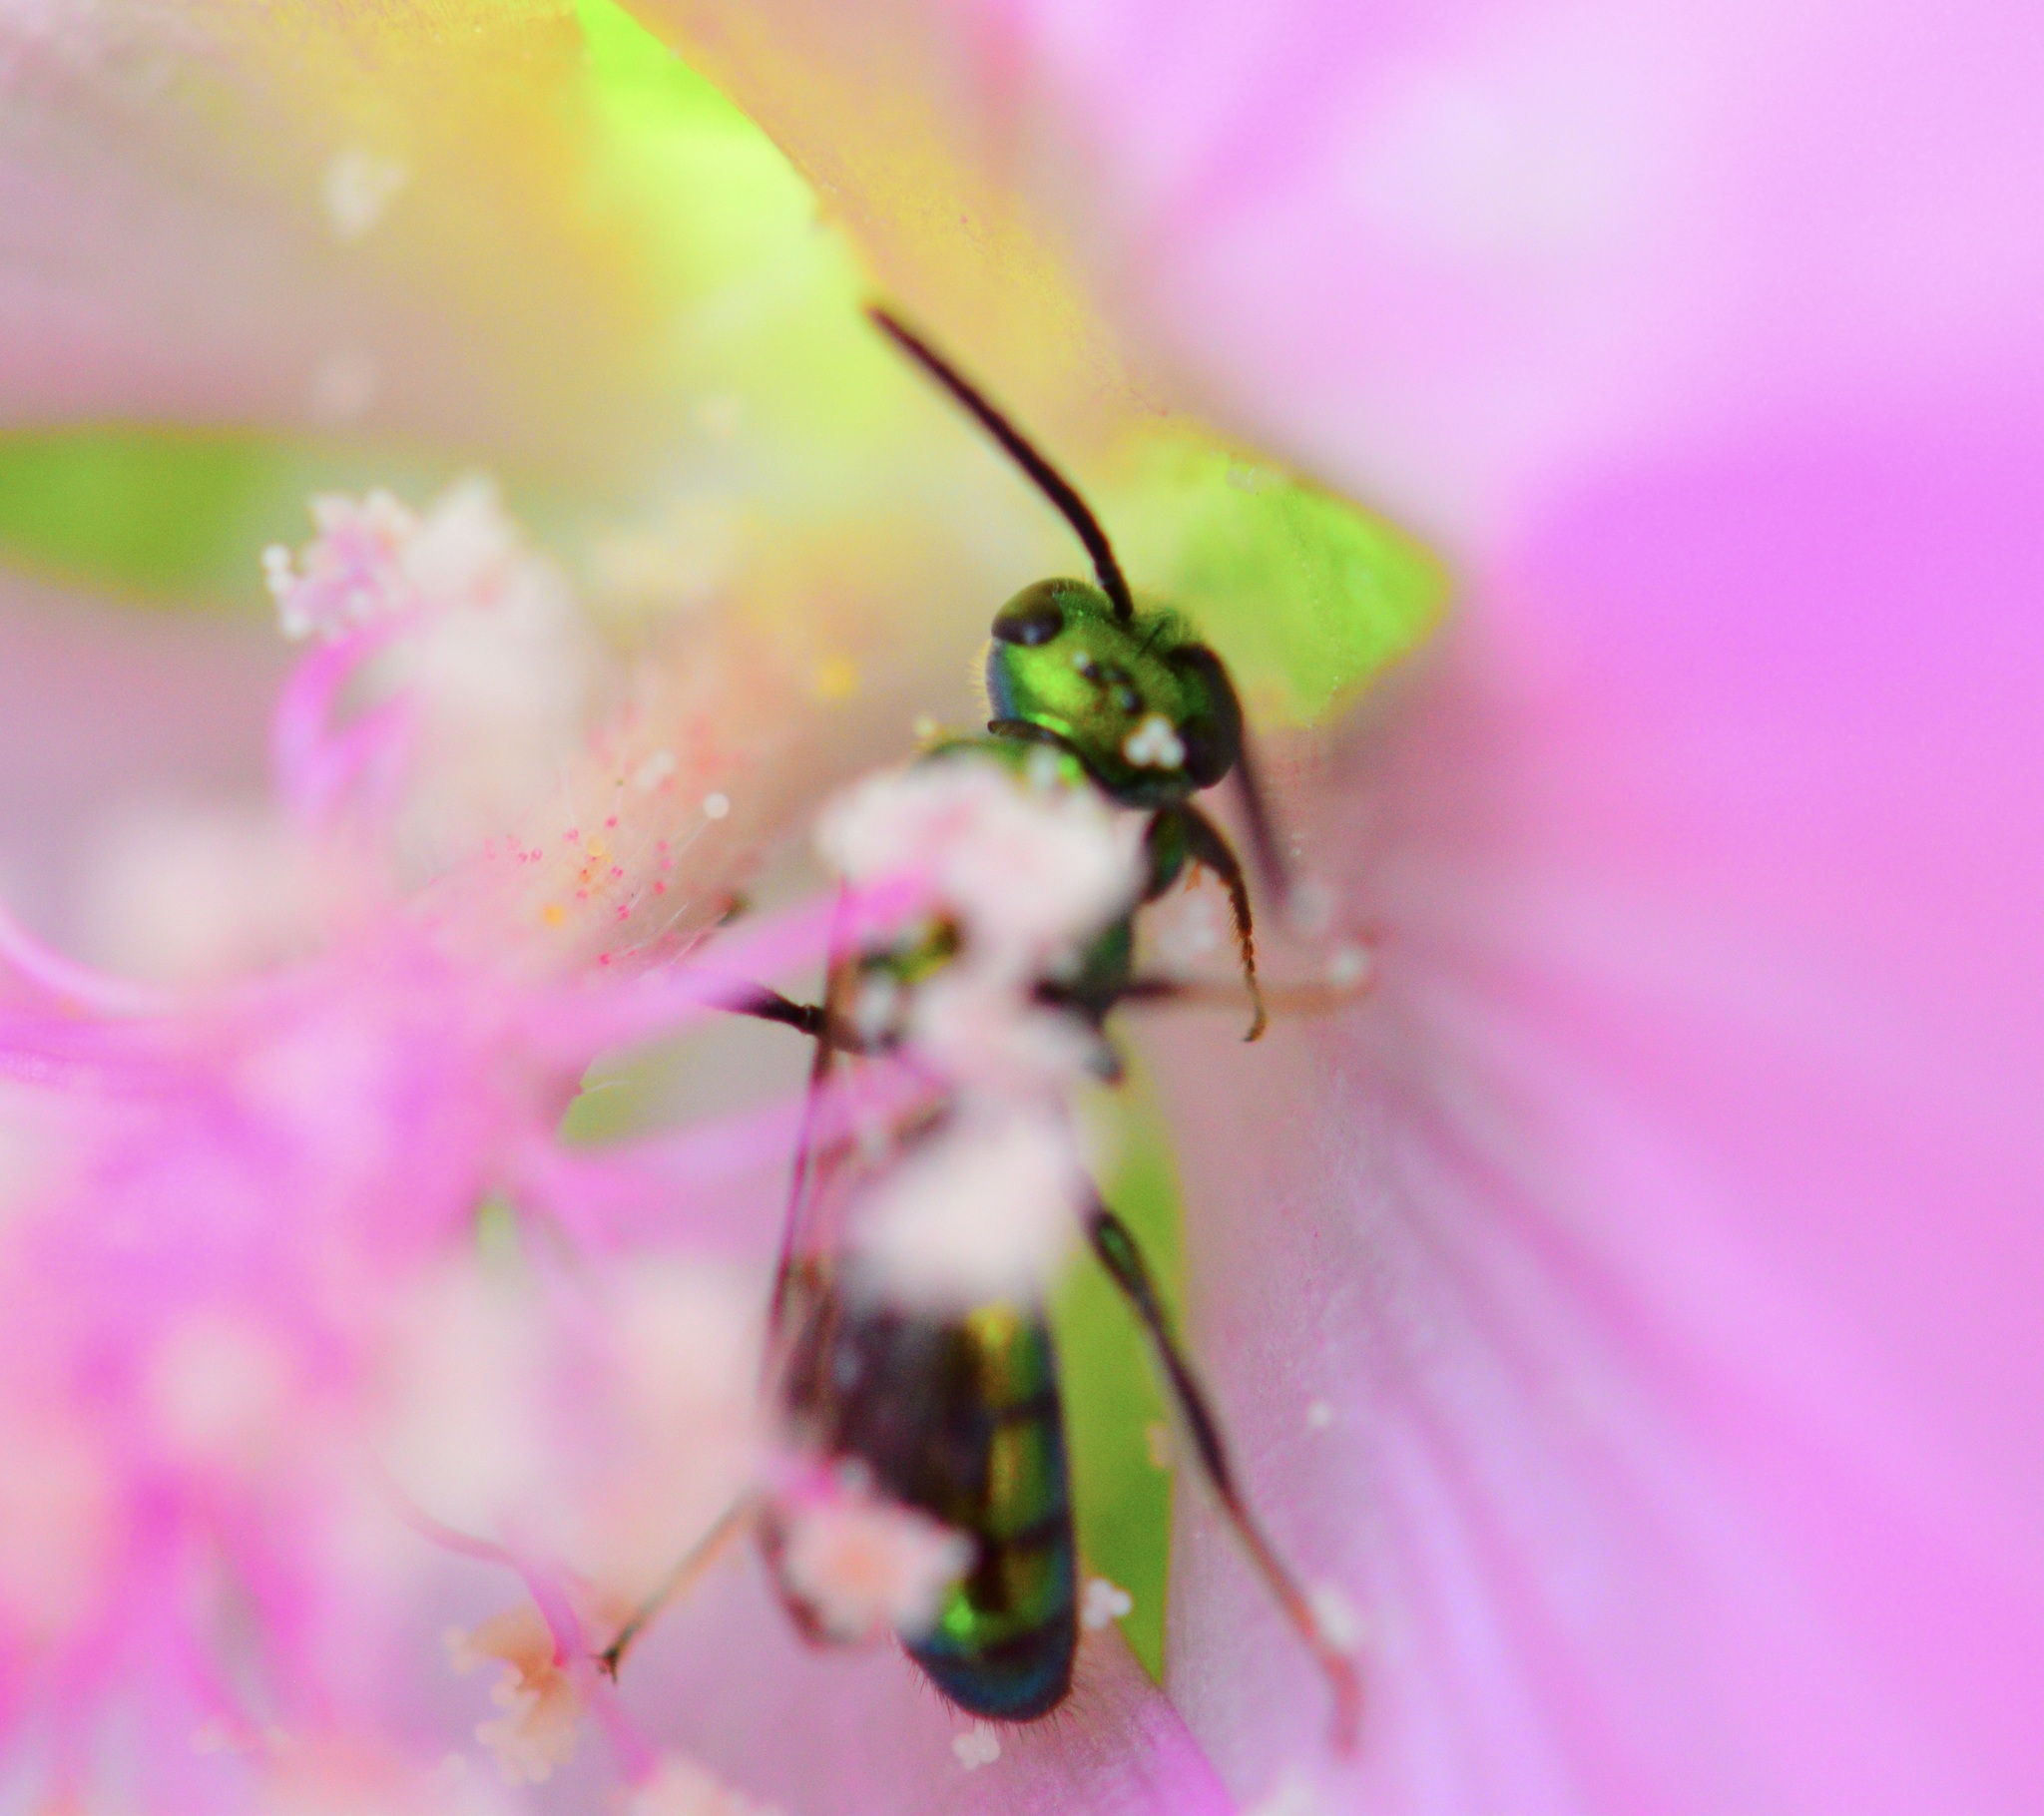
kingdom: Animalia
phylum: Arthropoda
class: Insecta
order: Hymenoptera
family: Halictidae
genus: Augochlora
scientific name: Augochlora pura
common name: Pure green sweat bee
